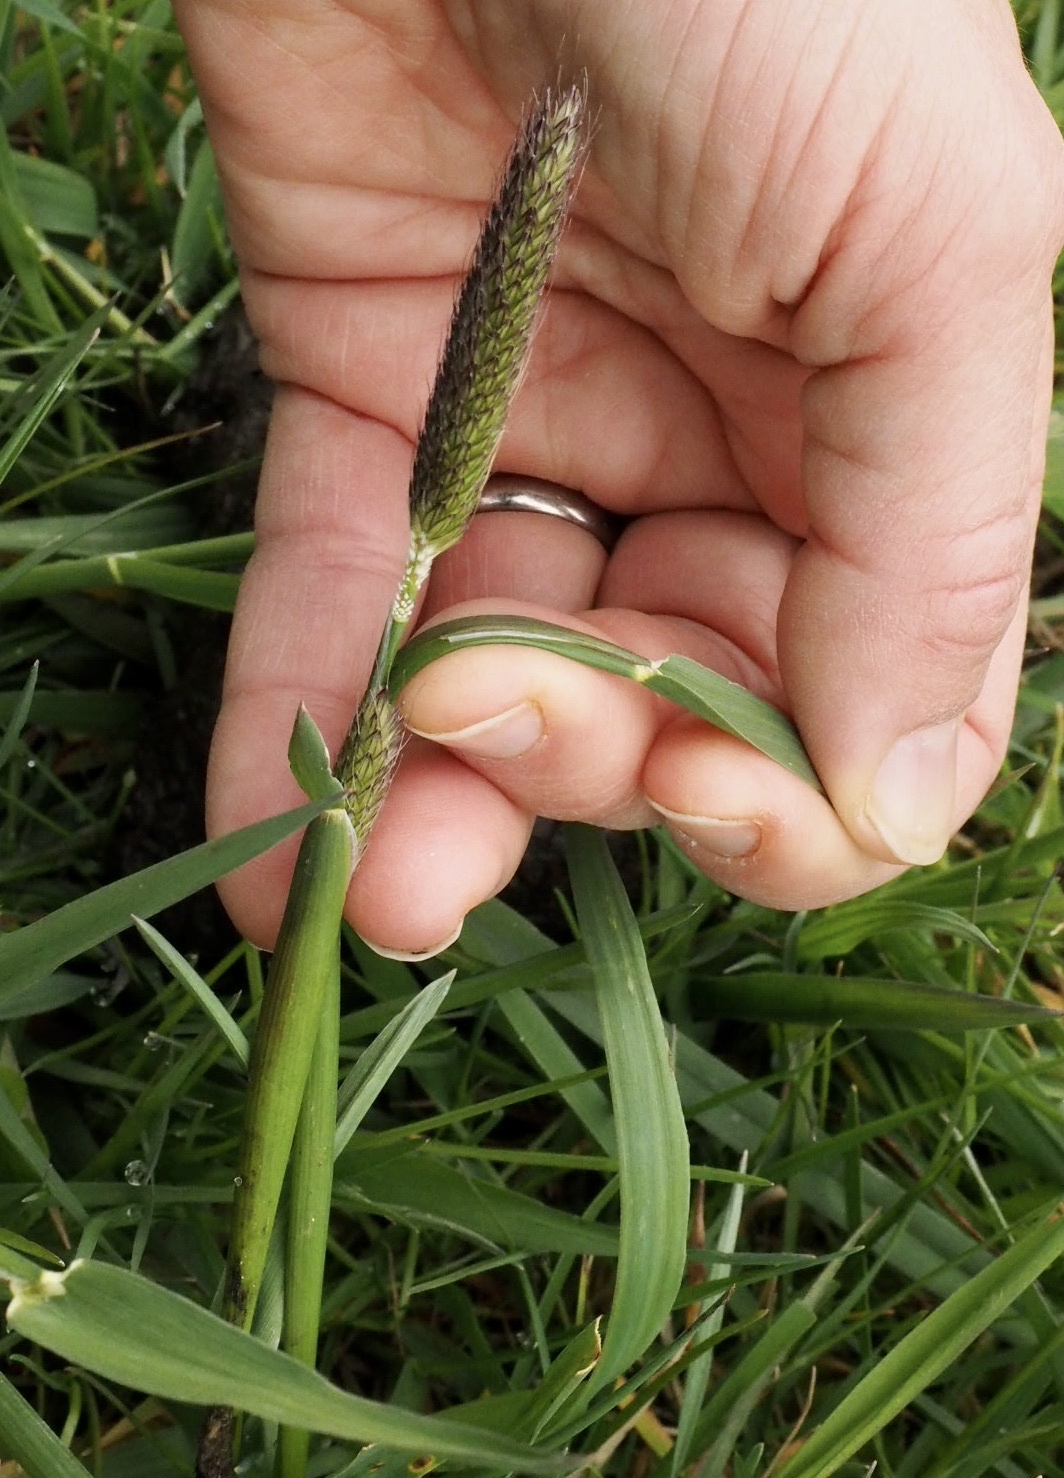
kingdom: Plantae
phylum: Tracheophyta
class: Liliopsida
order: Poales
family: Poaceae
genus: Alopecurus
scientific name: Alopecurus pratensis
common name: Meadow foxtail
